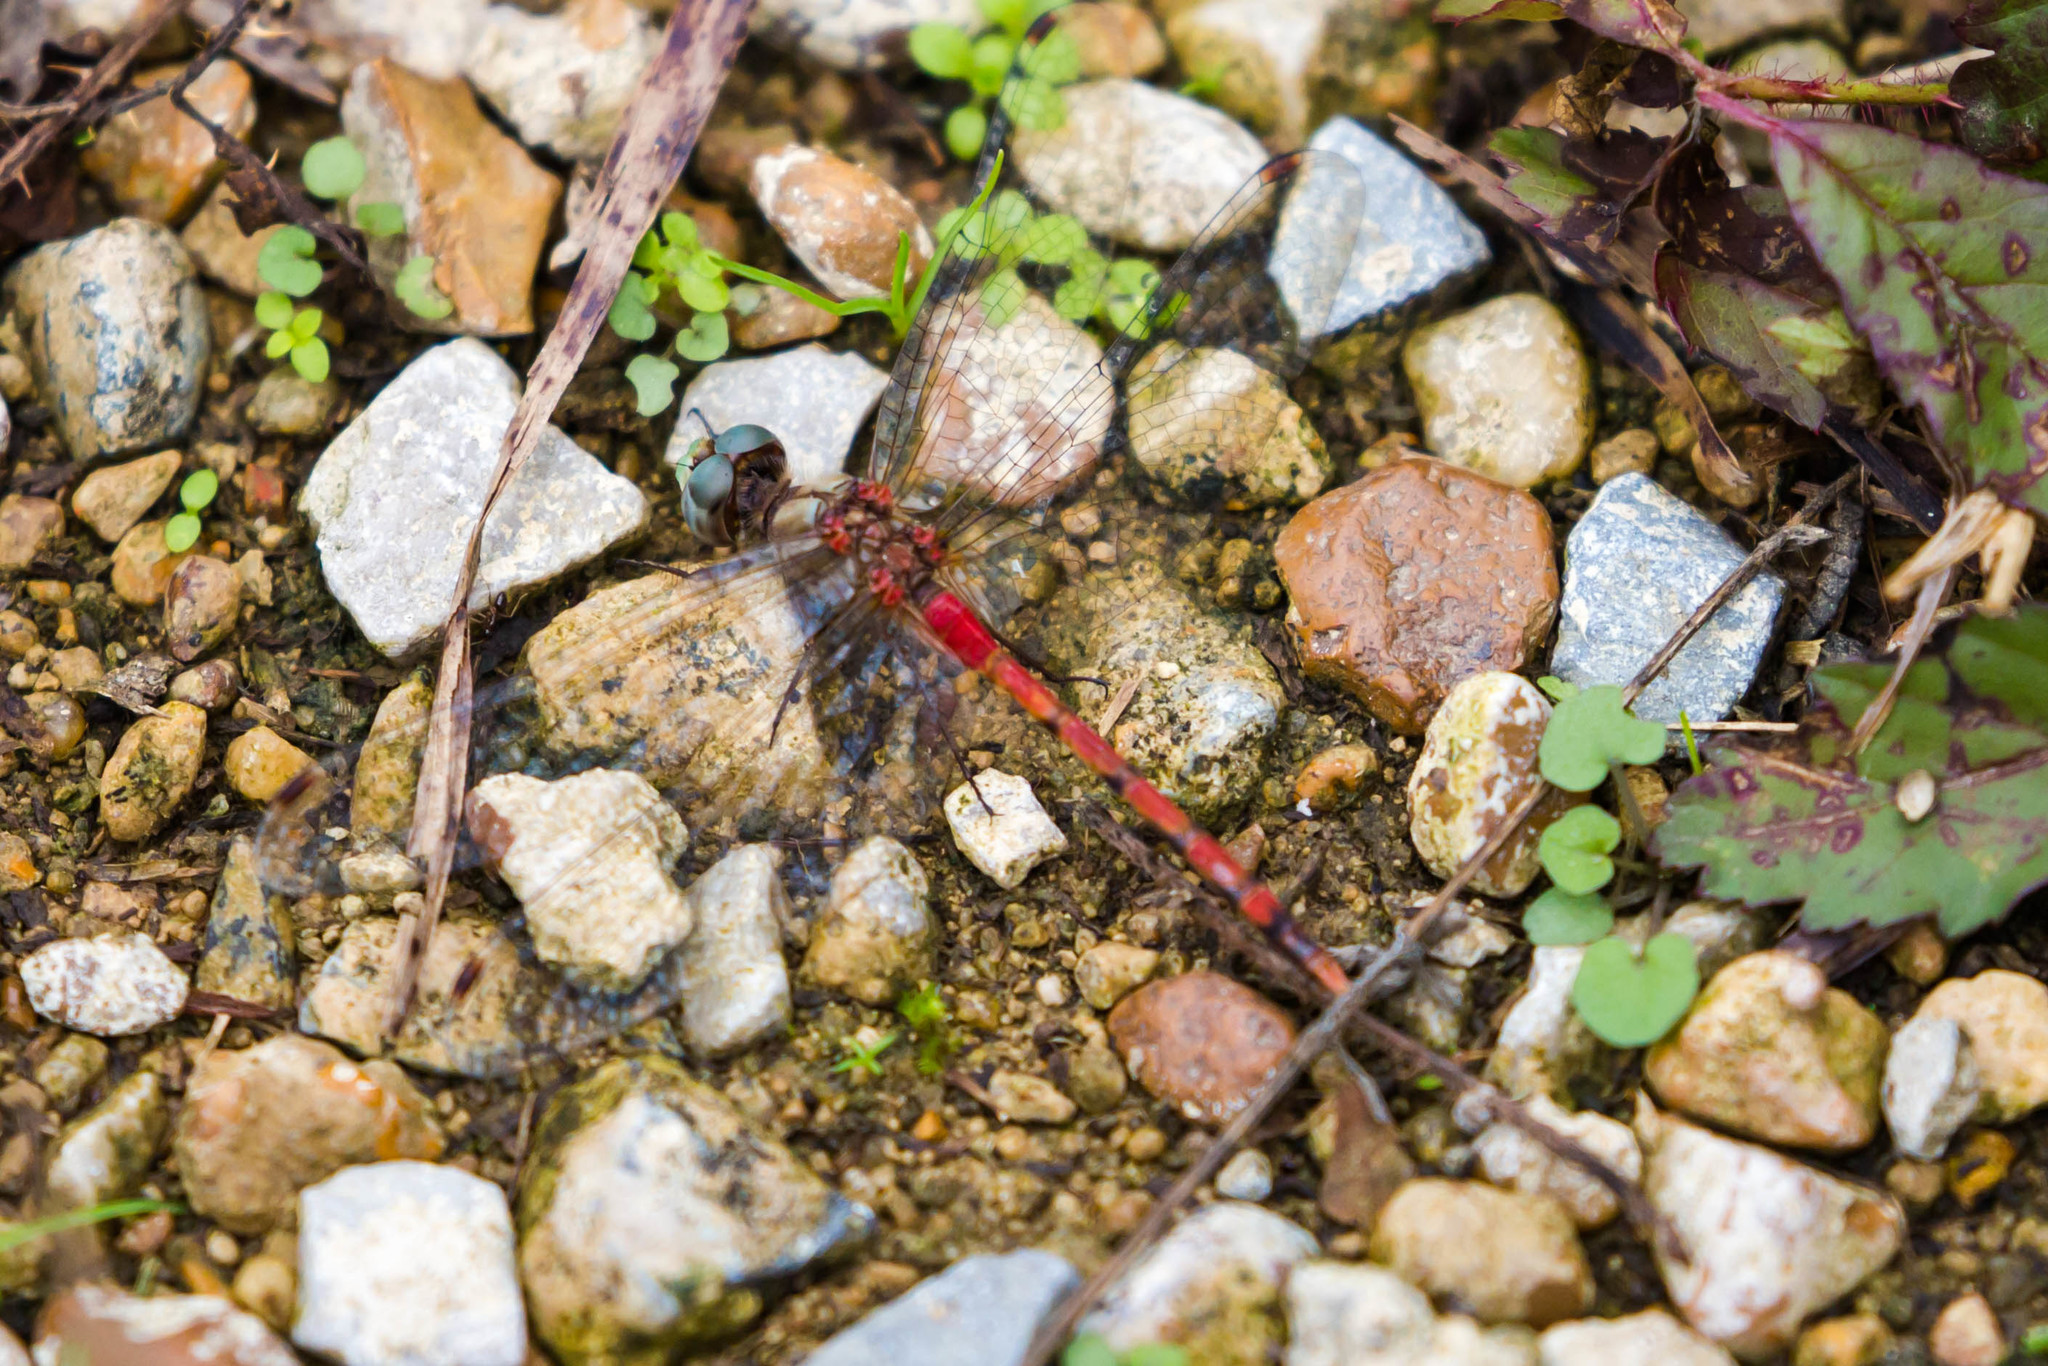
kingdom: Animalia
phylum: Arthropoda
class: Insecta
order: Odonata
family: Libellulidae
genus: Sympetrum
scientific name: Sympetrum ambiguum
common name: Blue-faced meadowhawk
